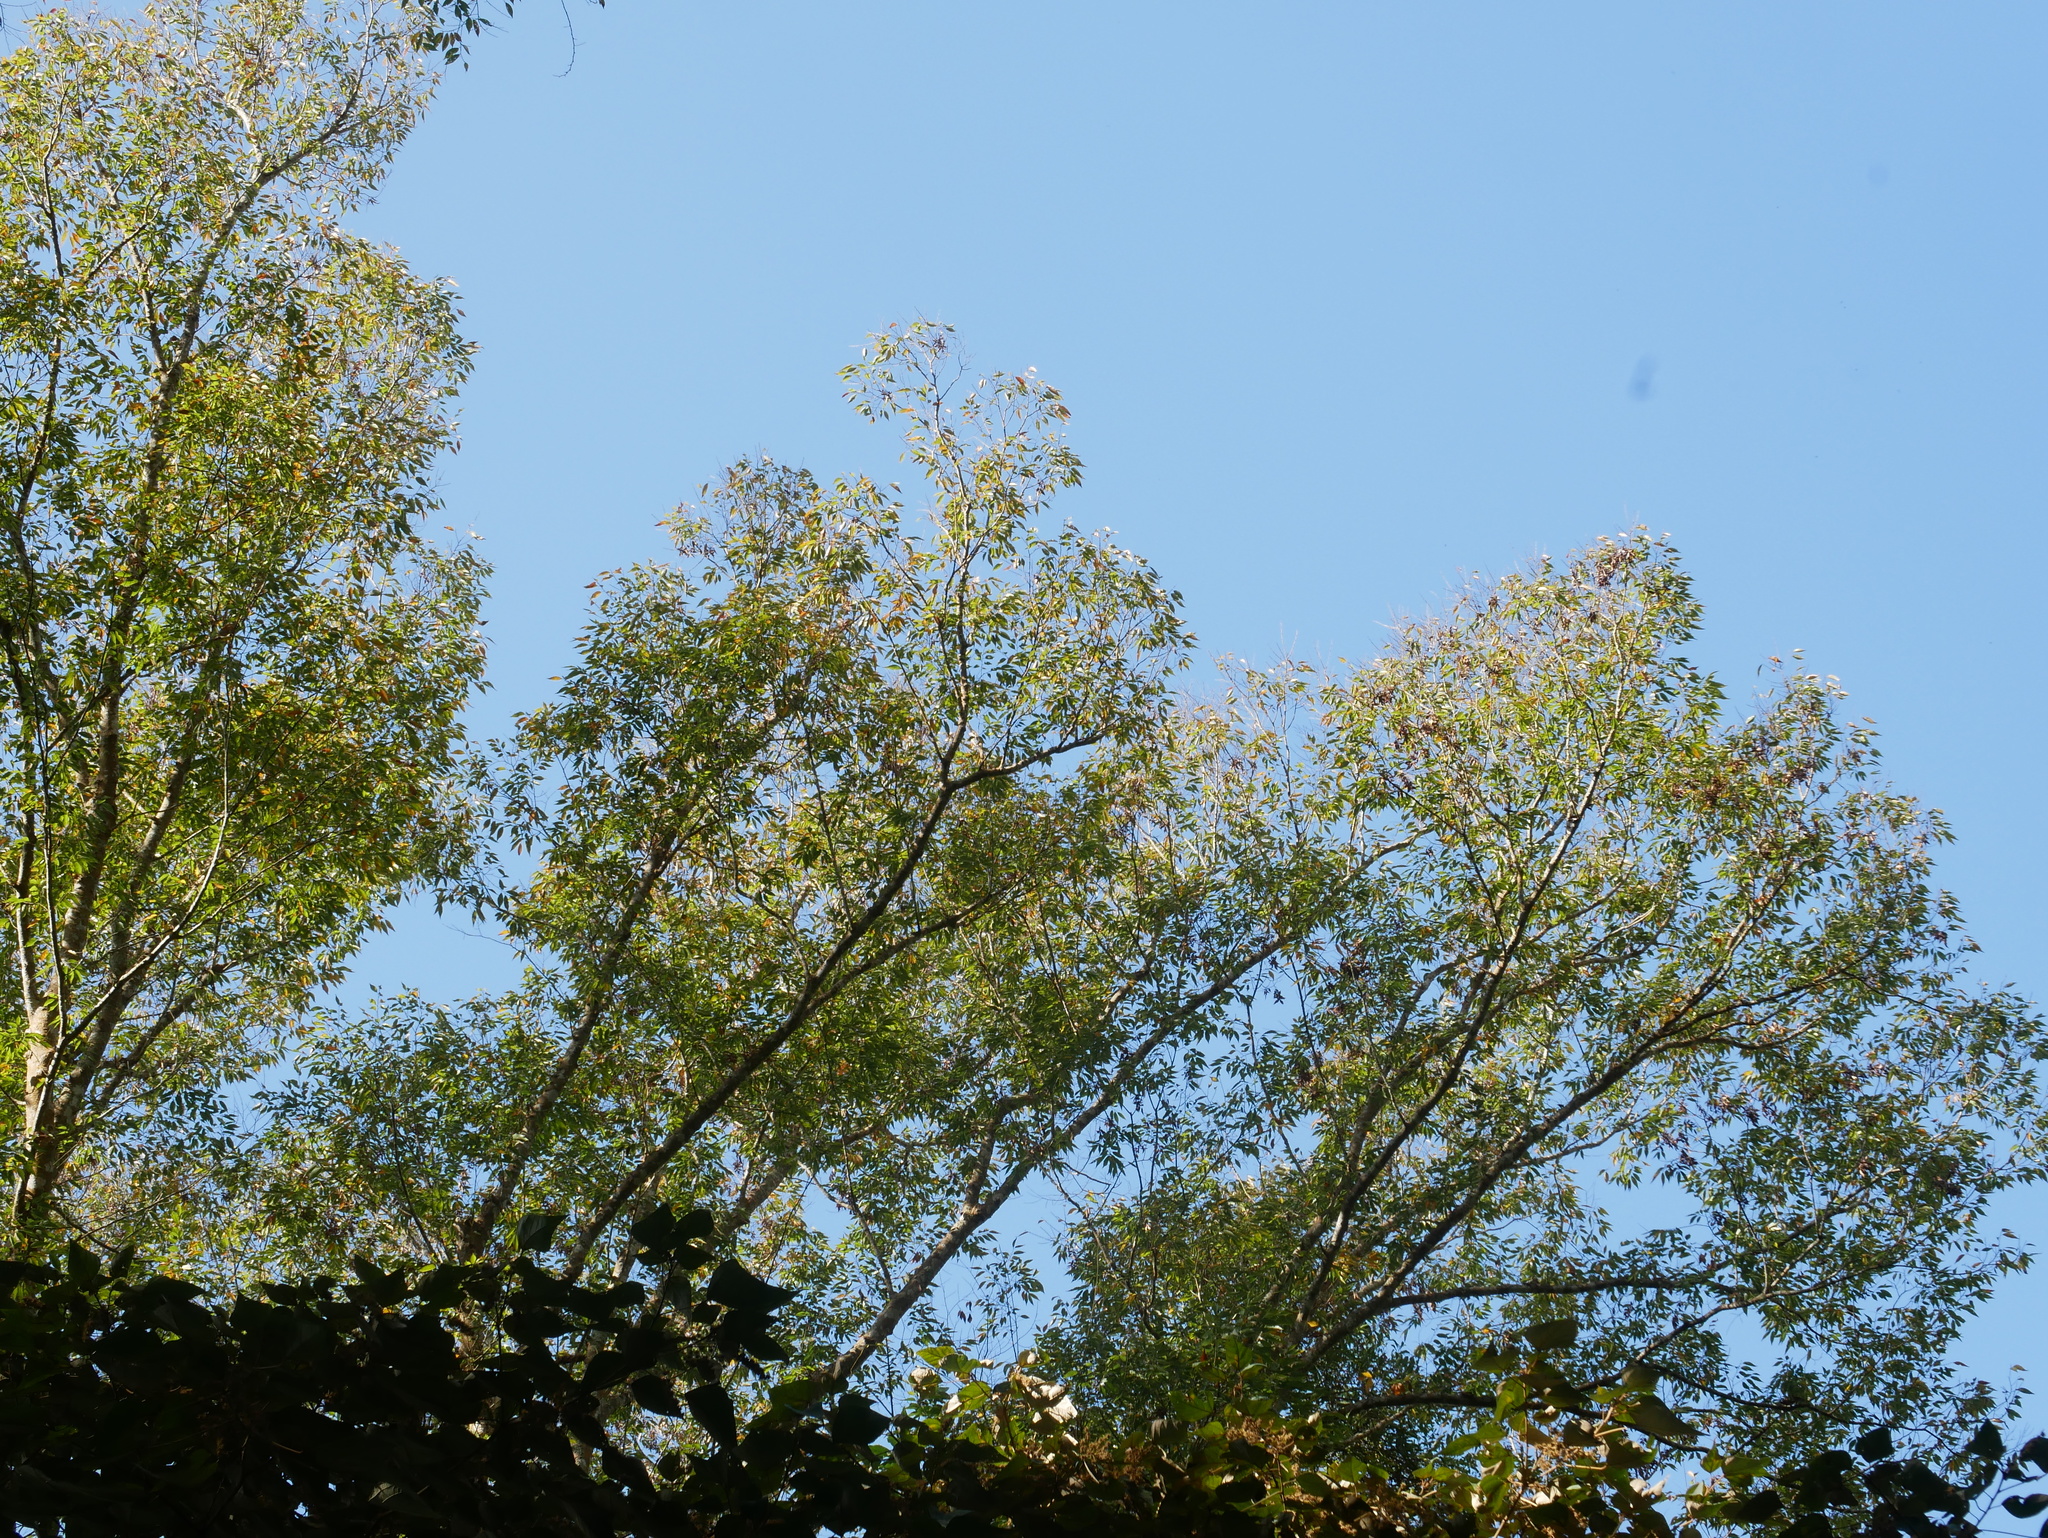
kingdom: Plantae
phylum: Tracheophyta
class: Magnoliopsida
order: Rosales
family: Ulmaceae
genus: Zelkova
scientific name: Zelkova serrata
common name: Japanese zelkova
